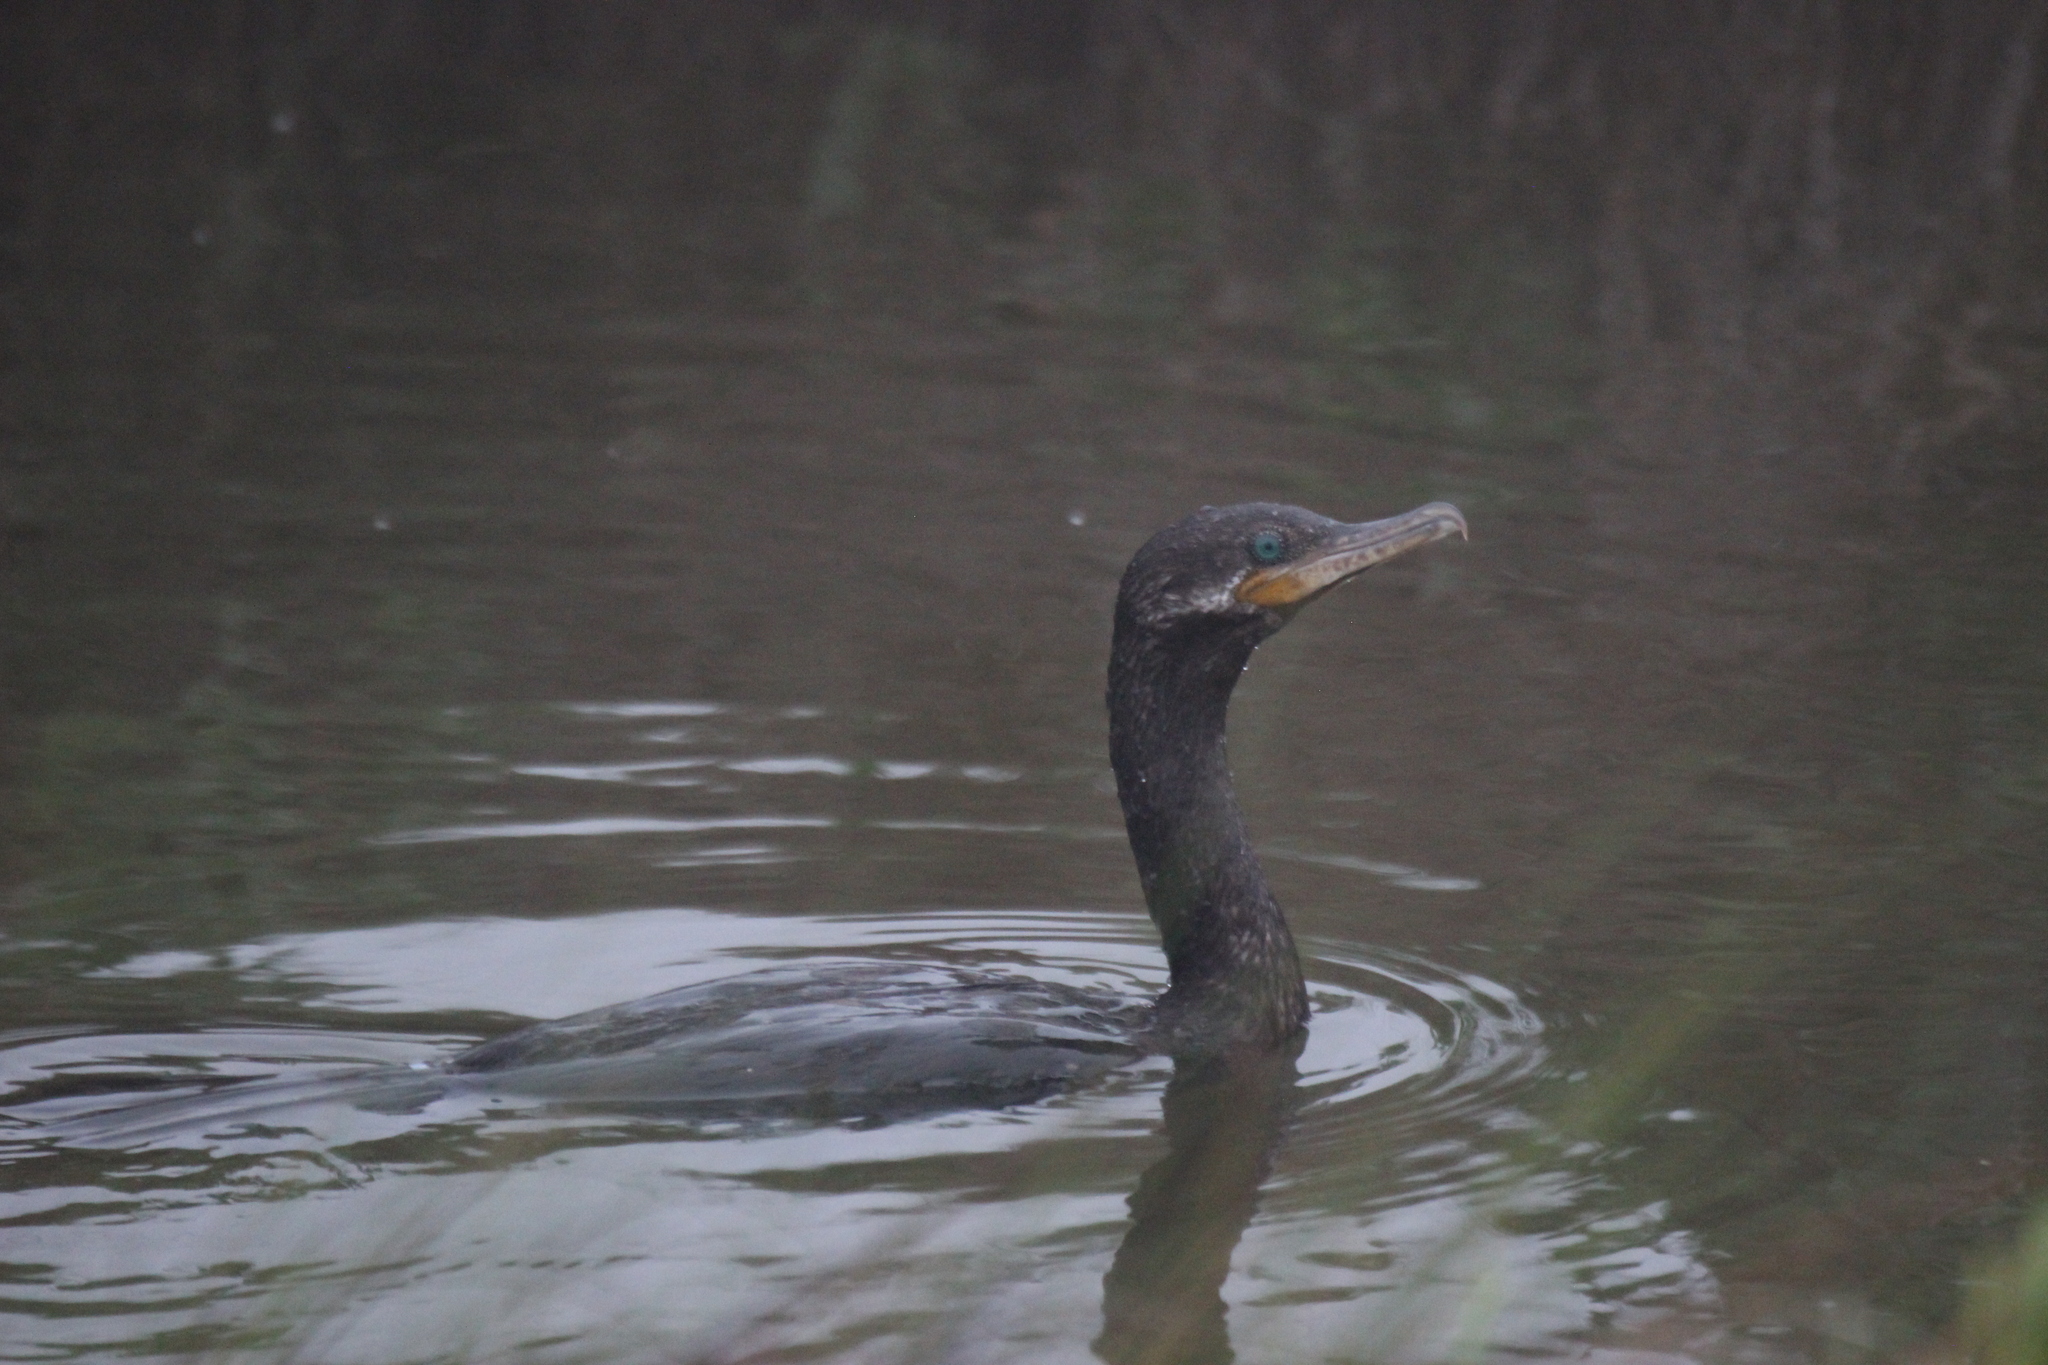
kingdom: Animalia
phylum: Chordata
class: Aves
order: Suliformes
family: Phalacrocoracidae
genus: Phalacrocorax
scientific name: Phalacrocorax brasilianus
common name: Neotropic cormorant
